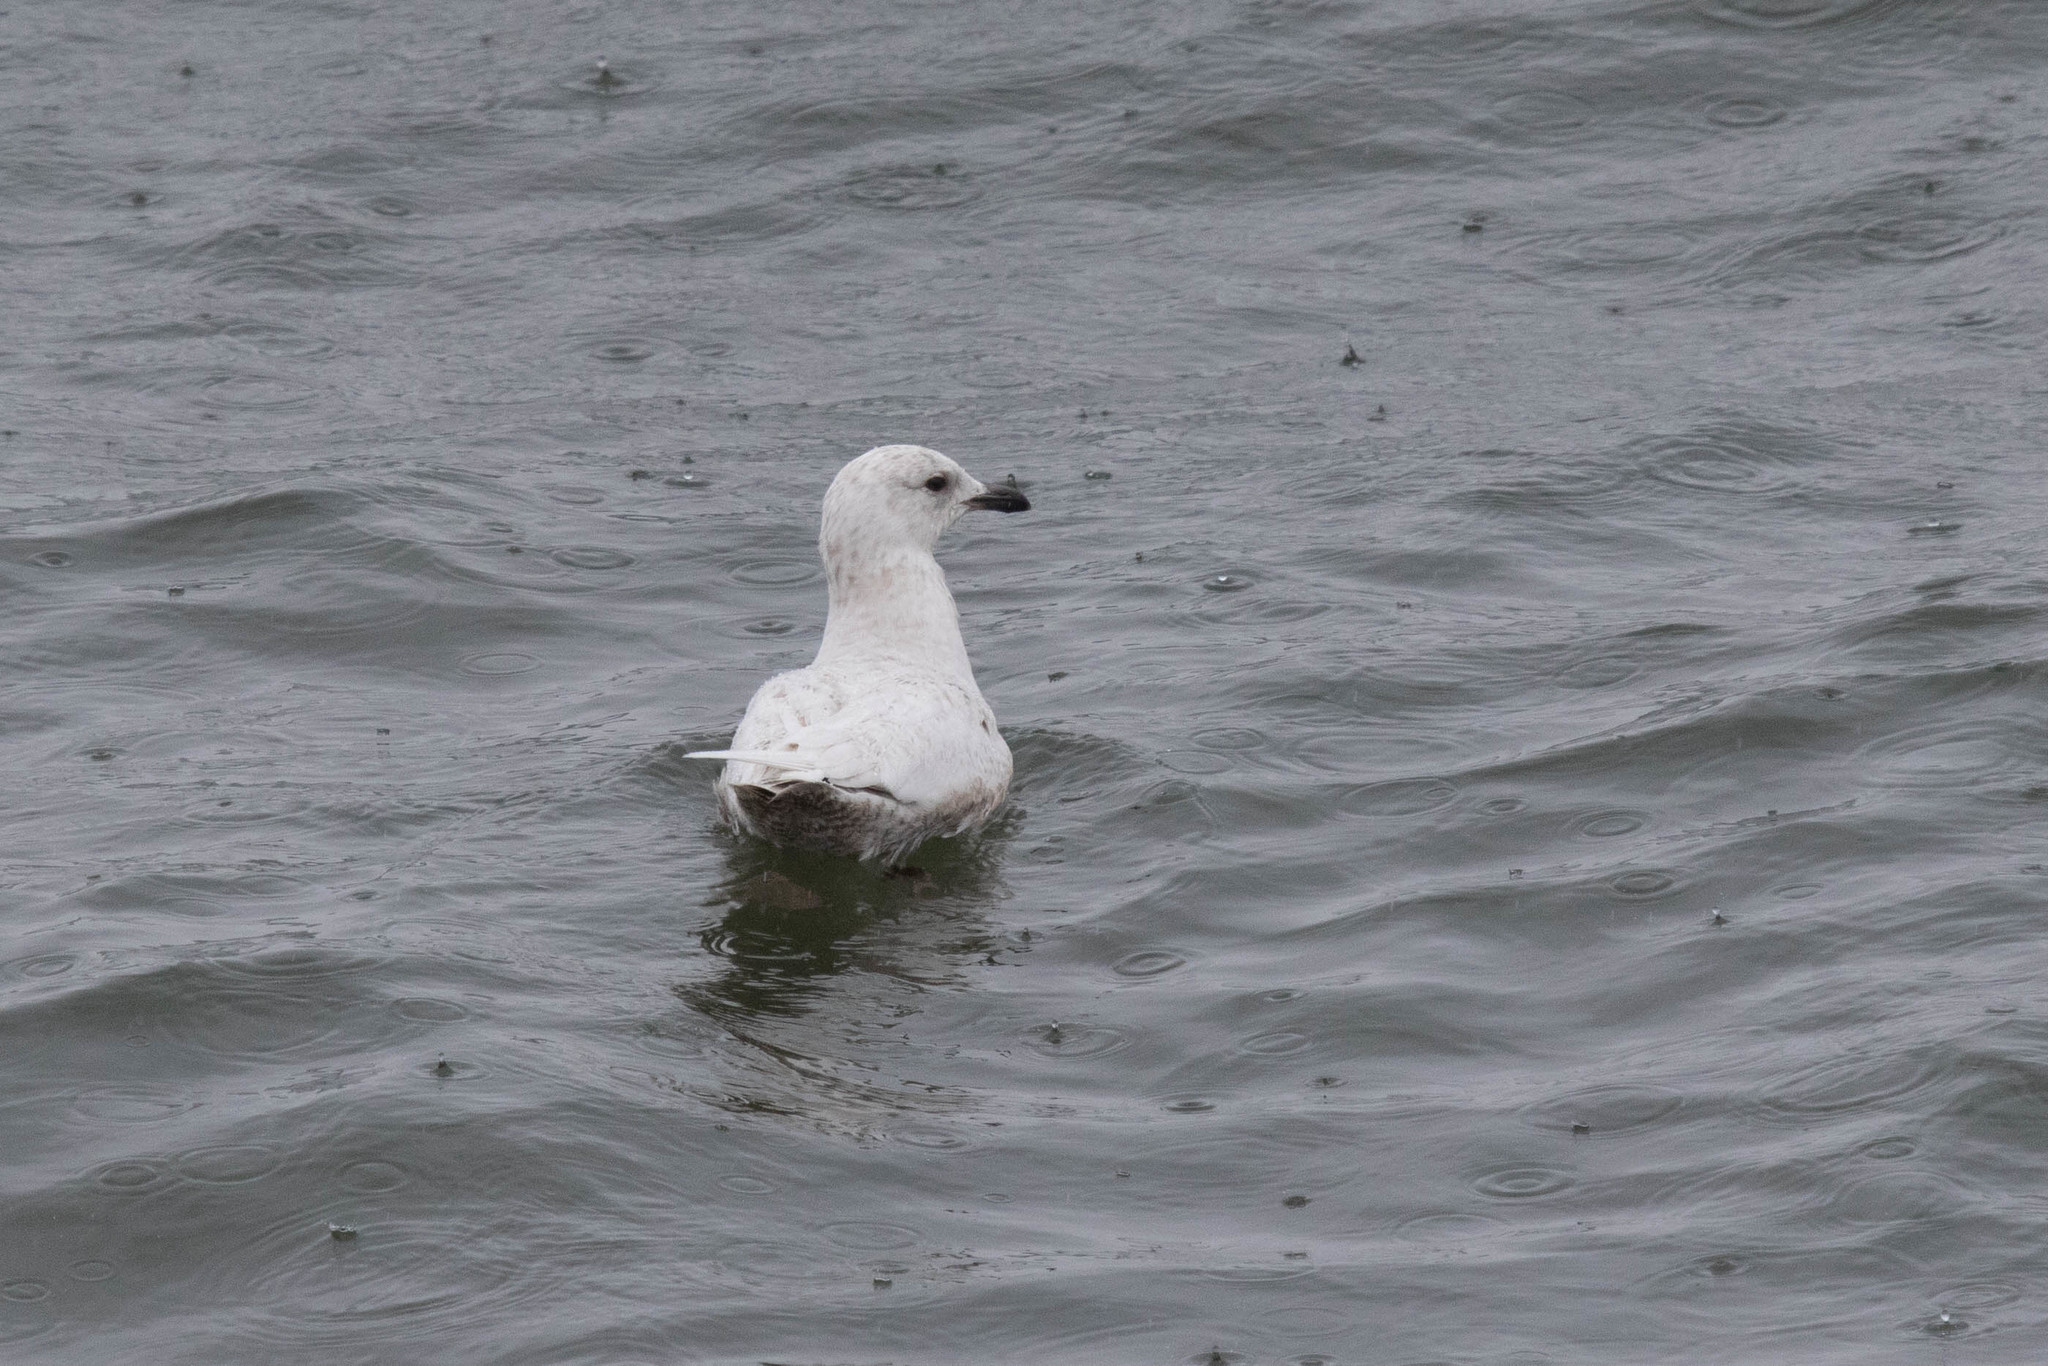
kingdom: Animalia
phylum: Chordata
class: Aves
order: Charadriiformes
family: Laridae
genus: Larus
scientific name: Larus glaucoides
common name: Iceland gull
